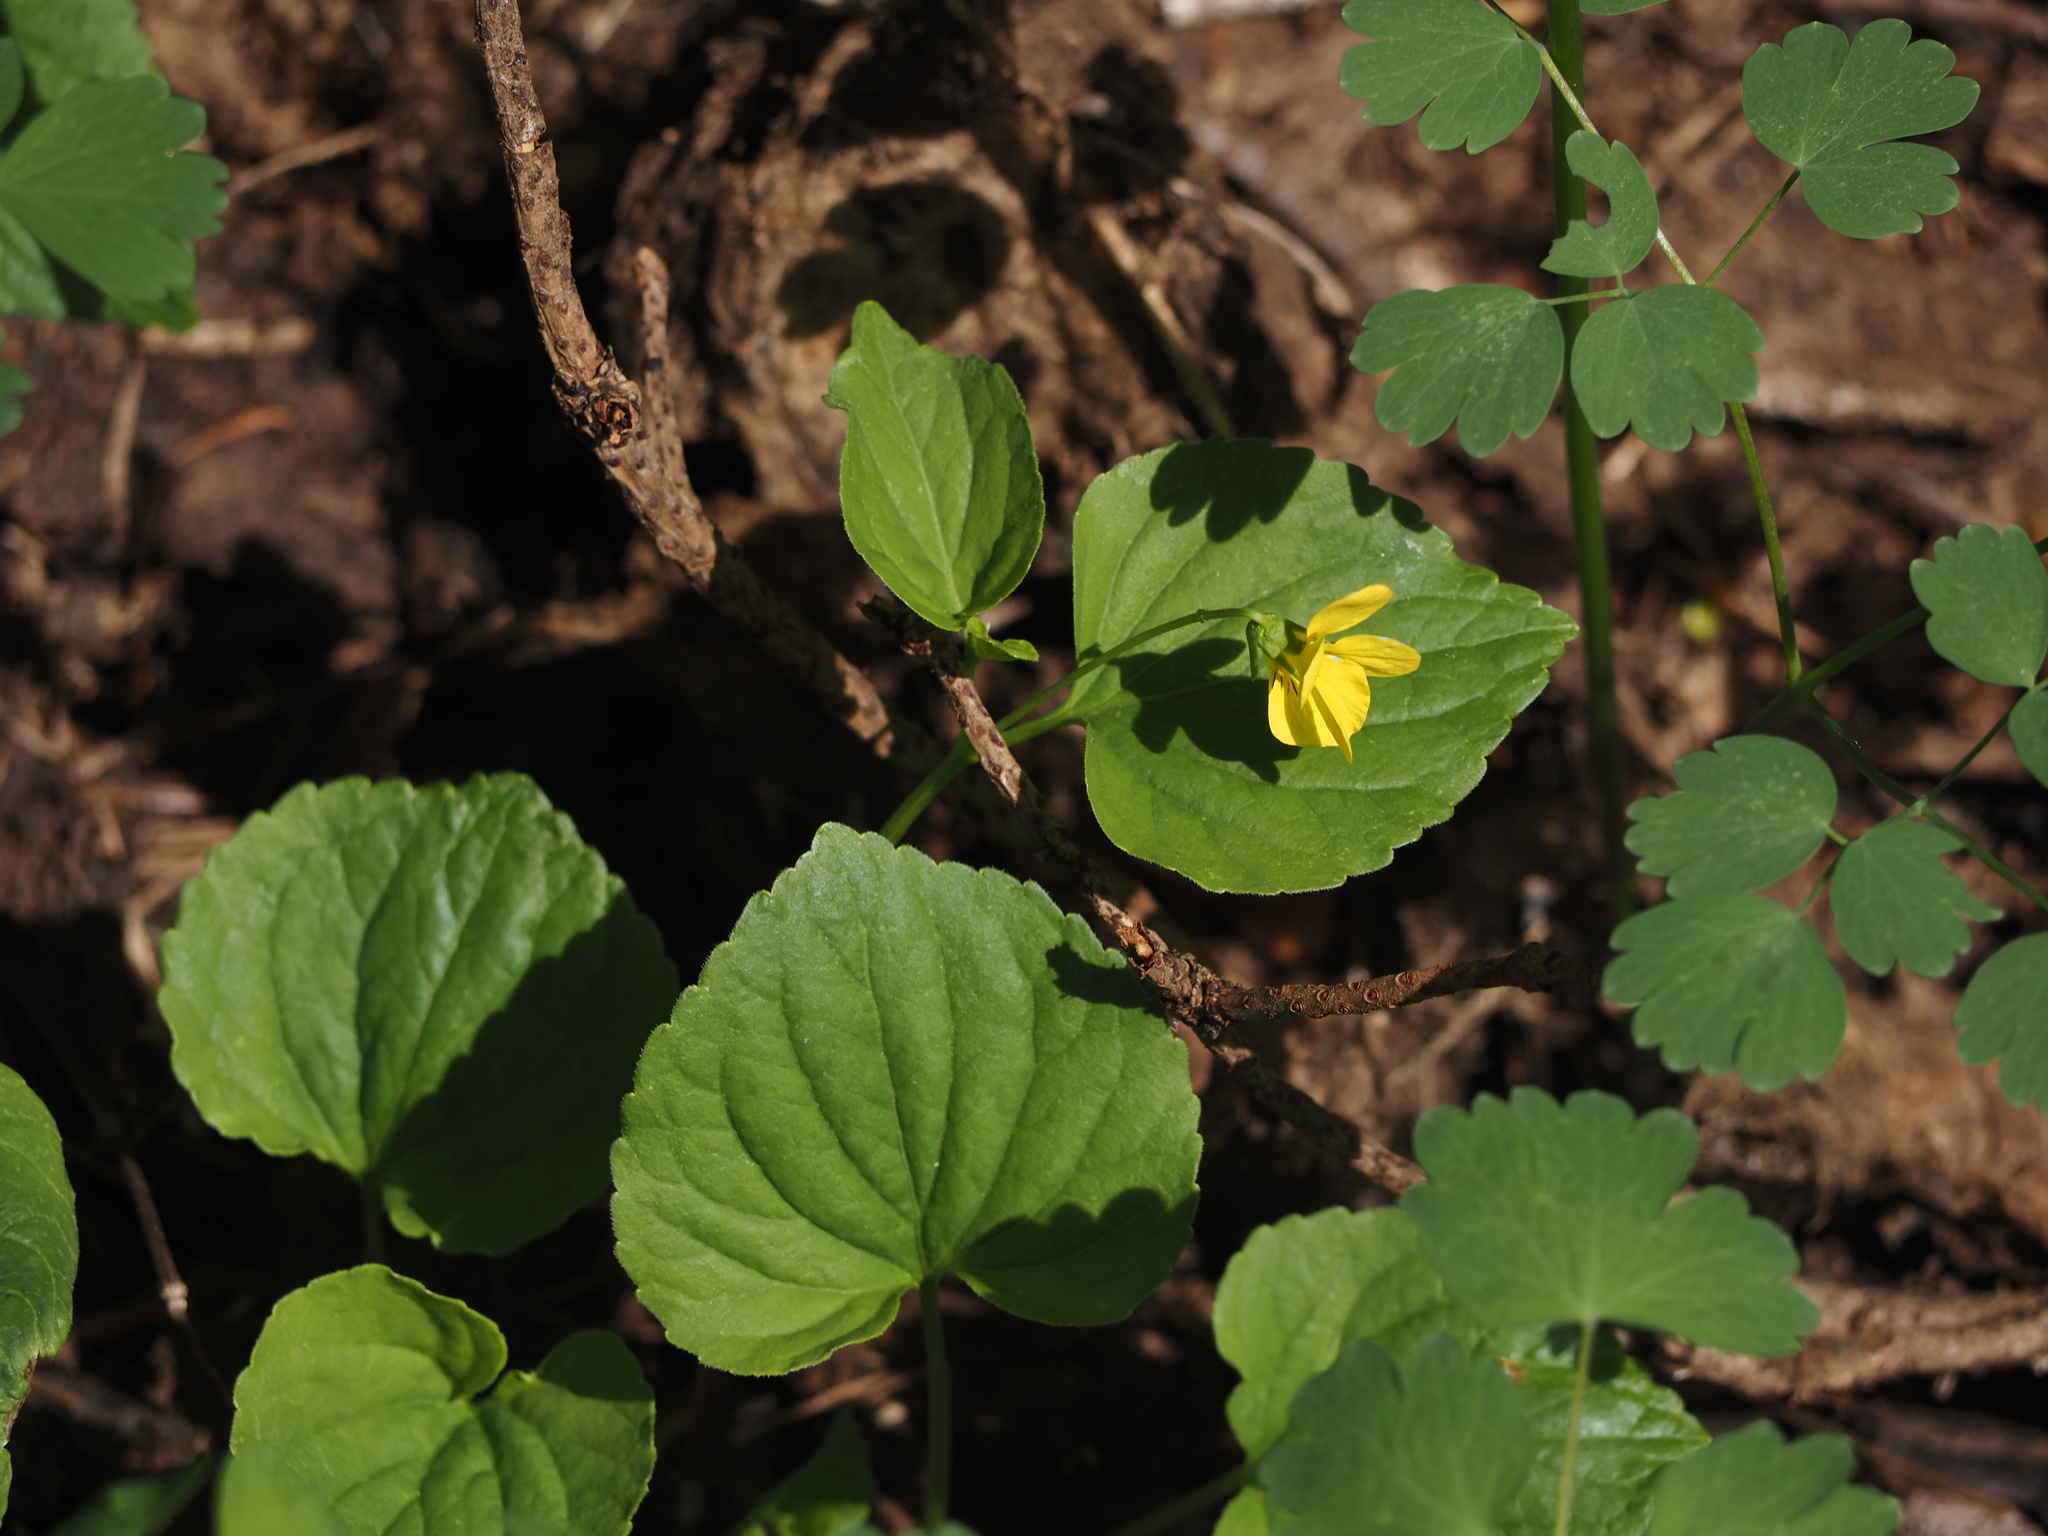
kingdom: Plantae
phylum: Tracheophyta
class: Magnoliopsida
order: Malpighiales
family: Violaceae
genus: Viola
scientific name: Viola glabella
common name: Stream violet
